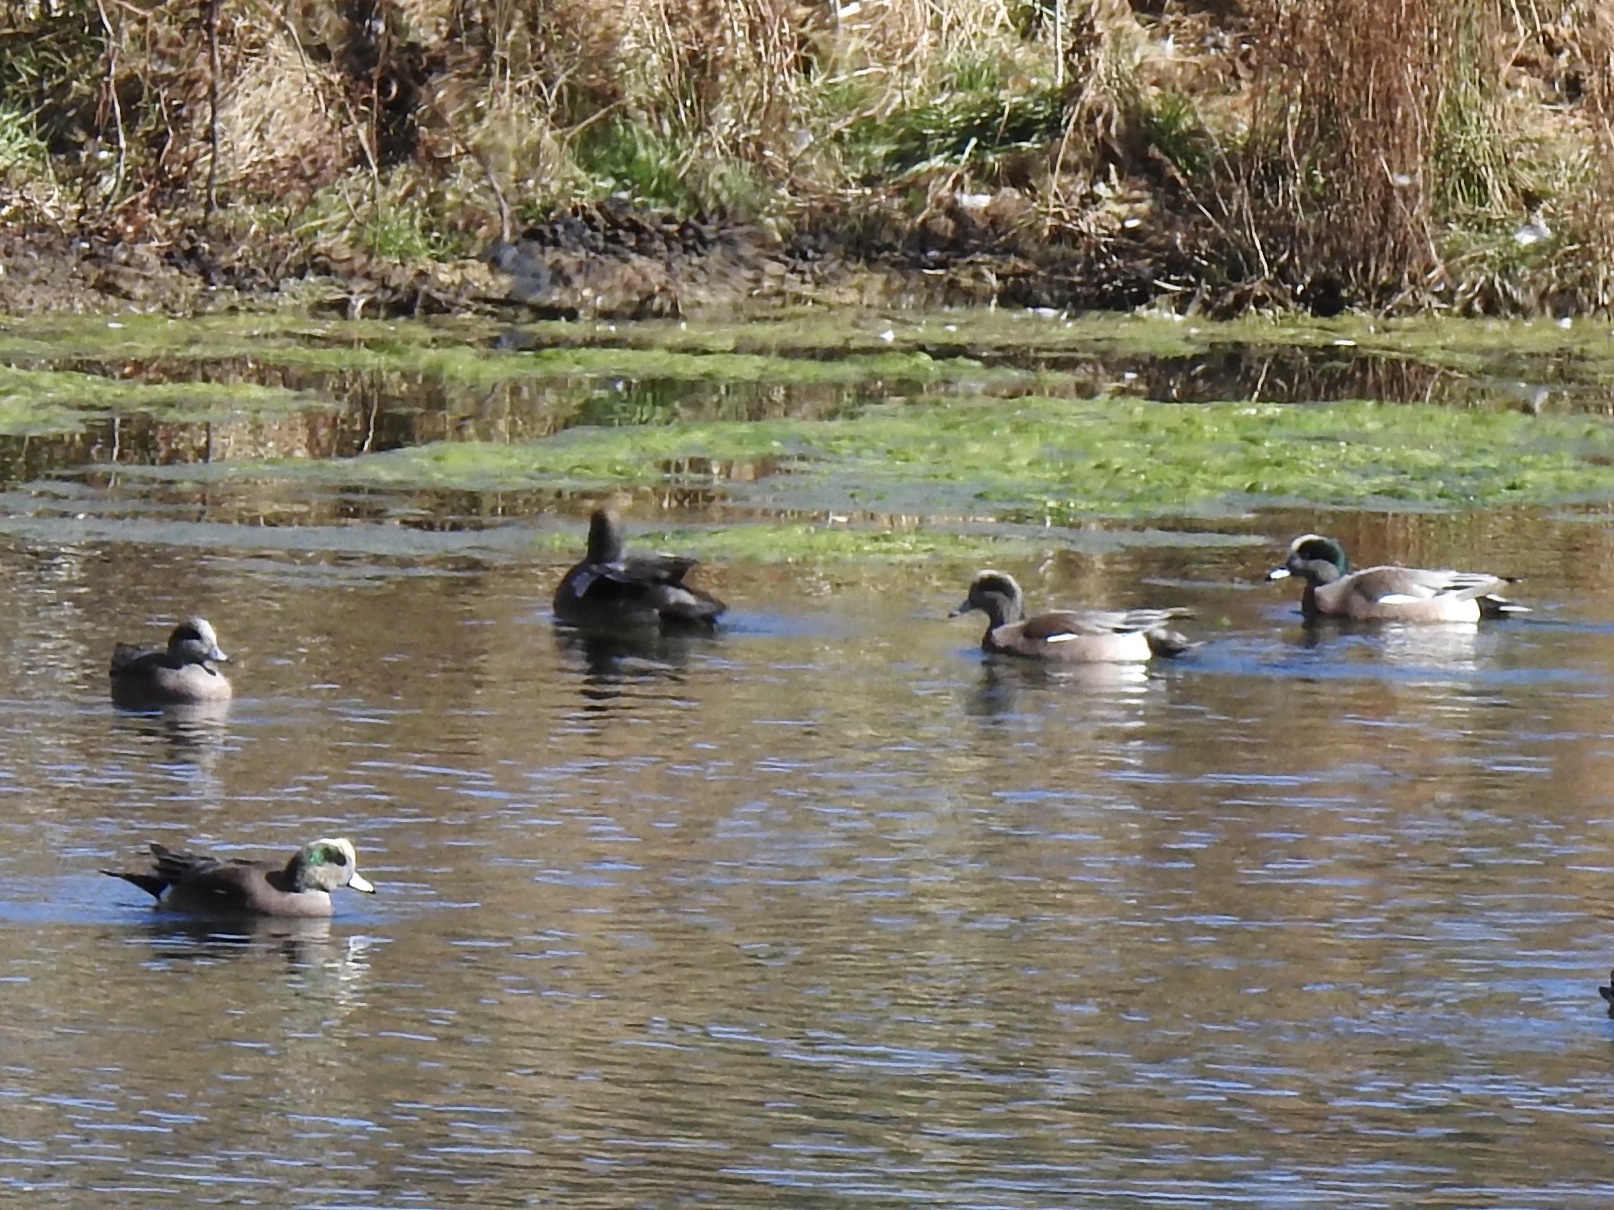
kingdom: Animalia
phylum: Chordata
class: Aves
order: Anseriformes
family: Anatidae
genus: Mareca
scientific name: Mareca americana
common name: American wigeon
